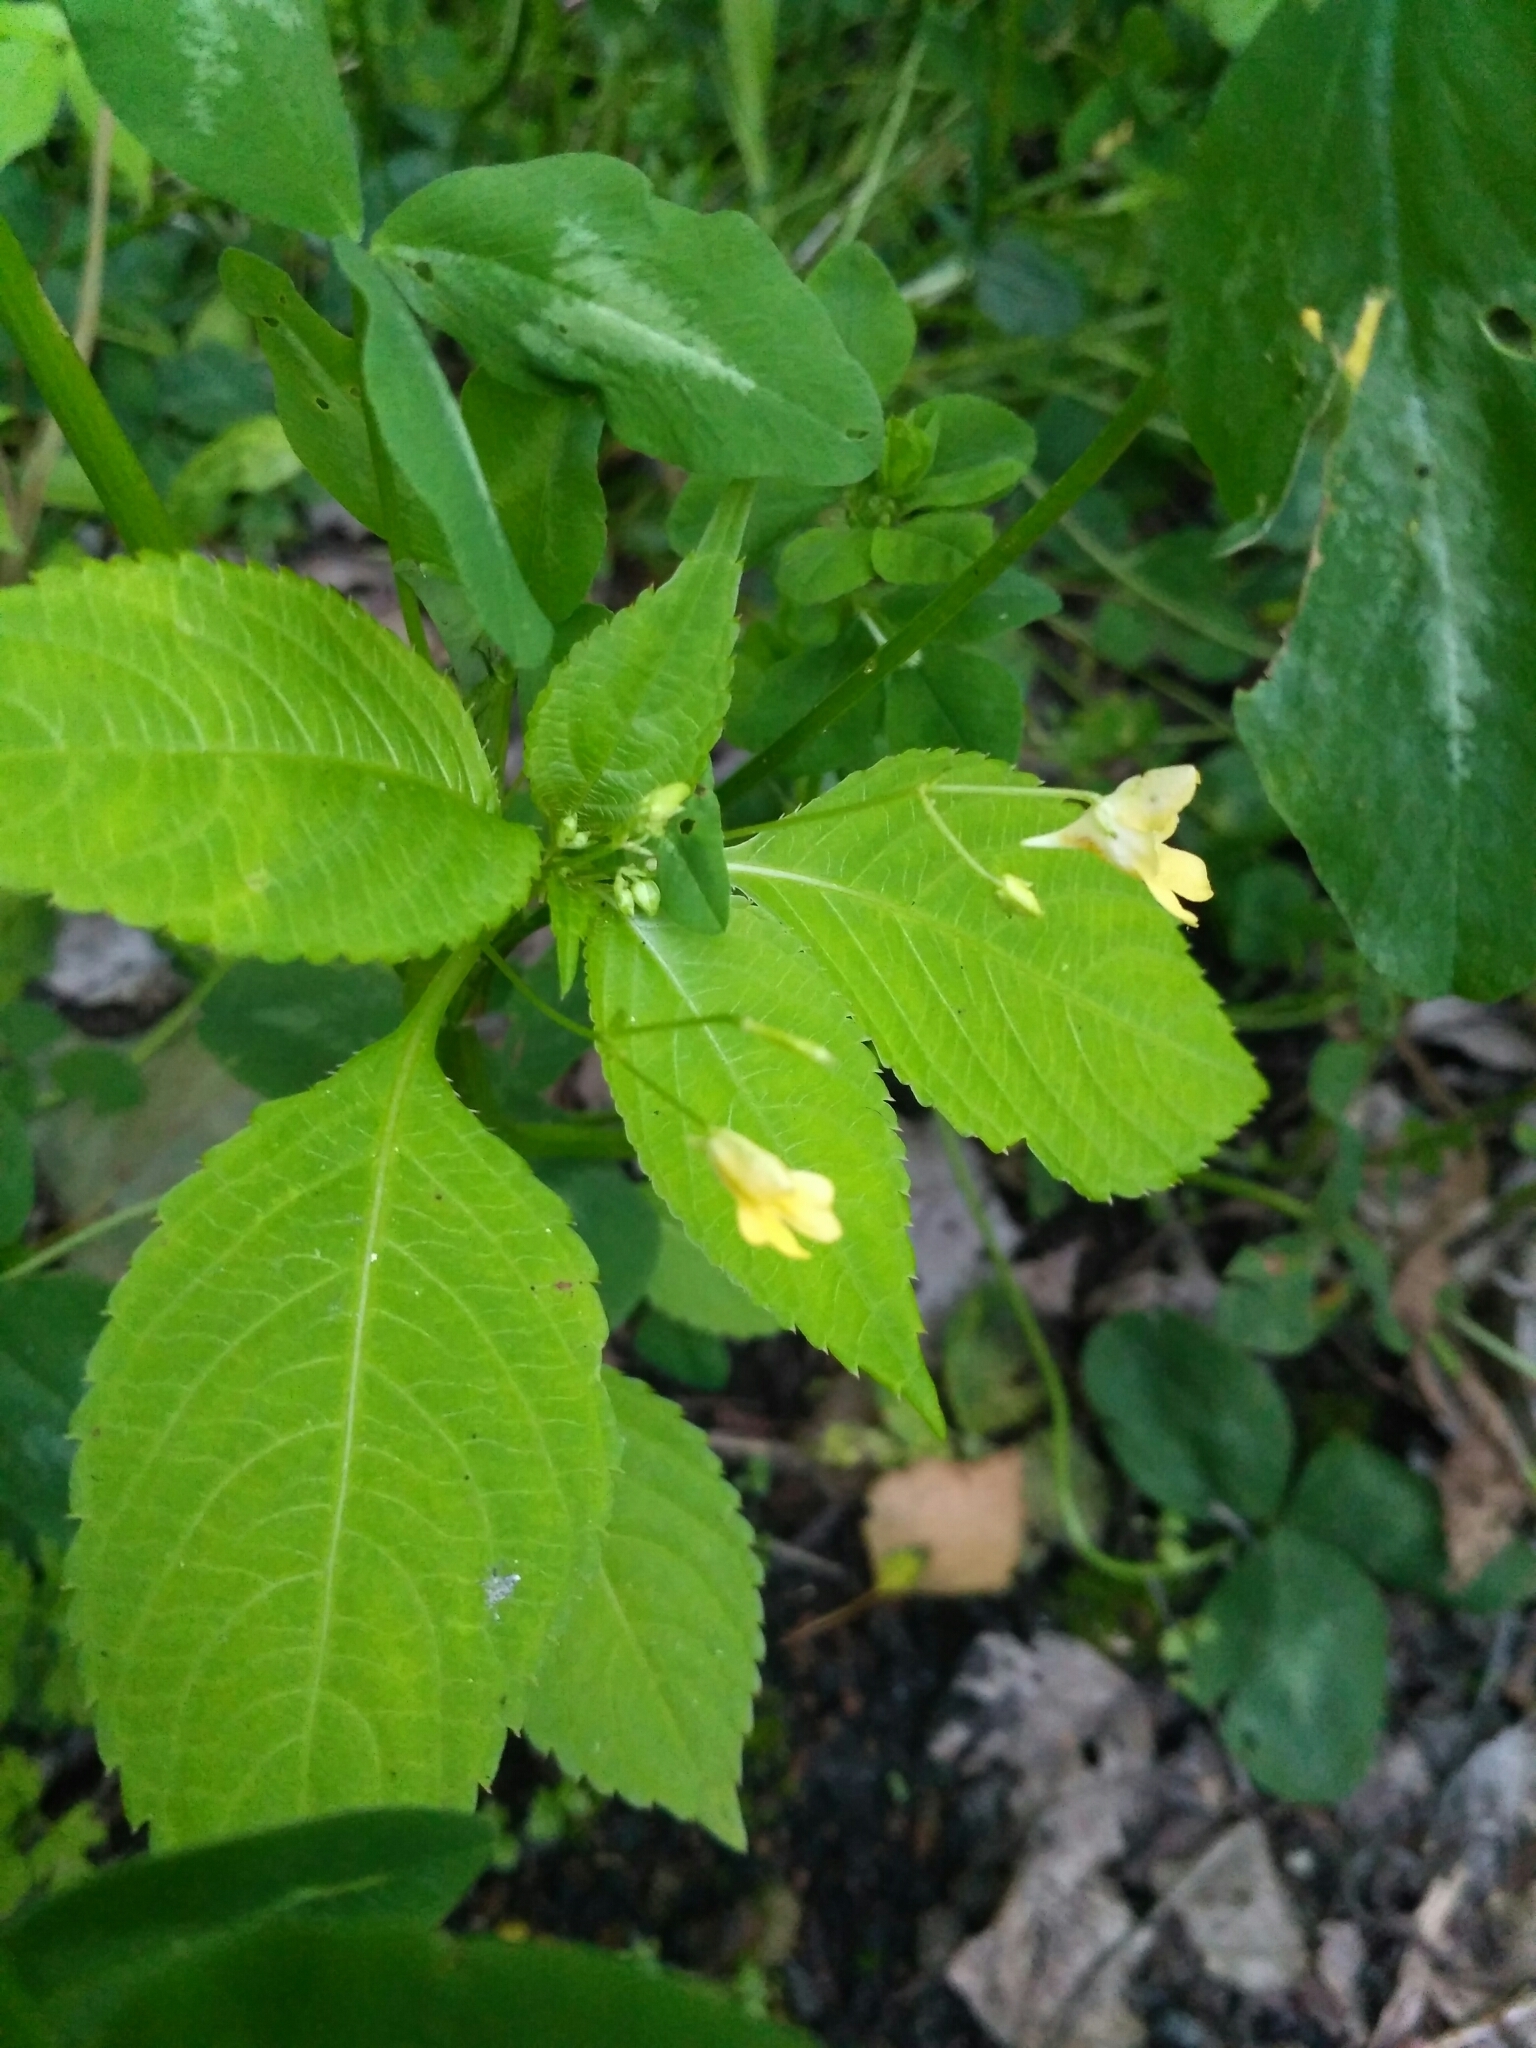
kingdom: Plantae
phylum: Tracheophyta
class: Magnoliopsida
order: Ericales
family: Balsaminaceae
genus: Impatiens
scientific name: Impatiens parviflora
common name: Small balsam
